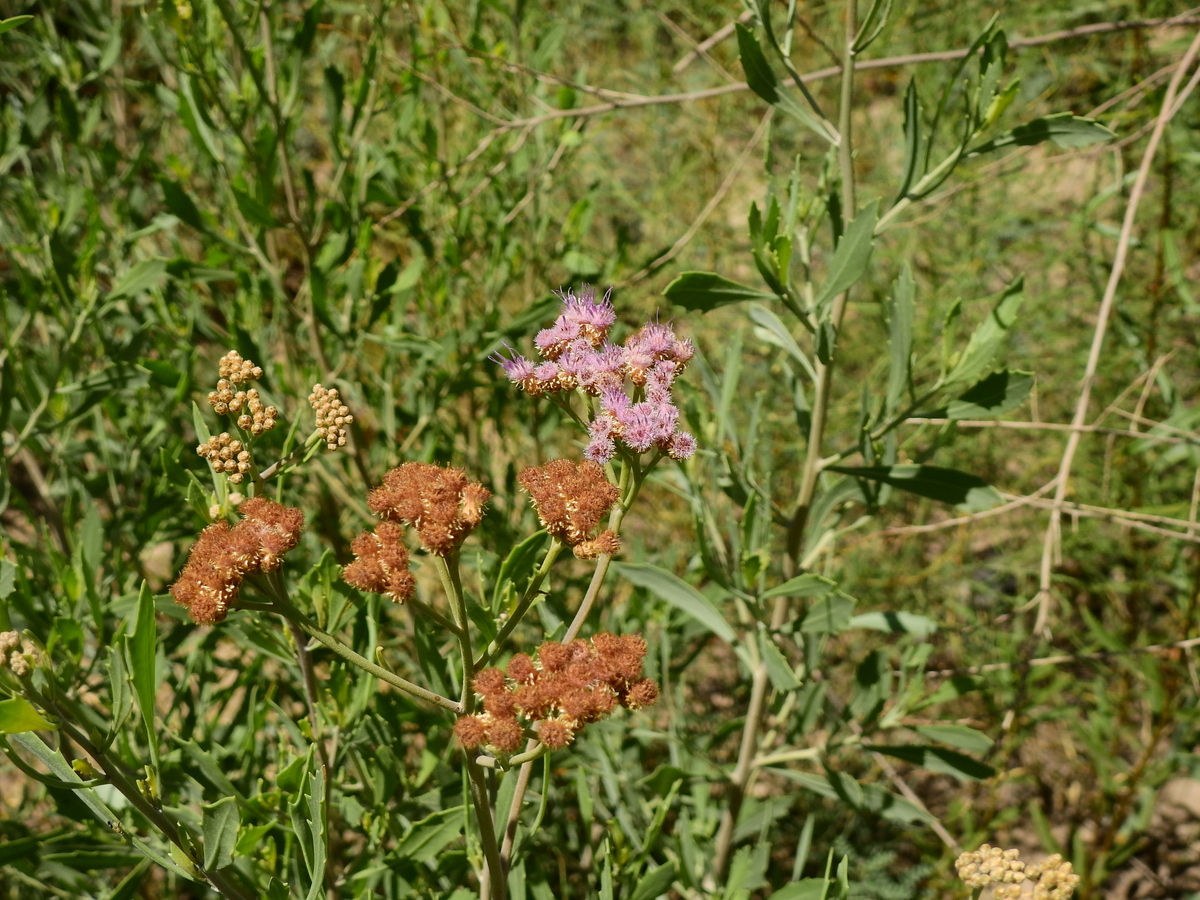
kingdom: Plantae
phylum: Tracheophyta
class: Magnoliopsida
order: Asterales
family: Asteraceae
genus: Tessaria
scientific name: Tessaria absinthioides
